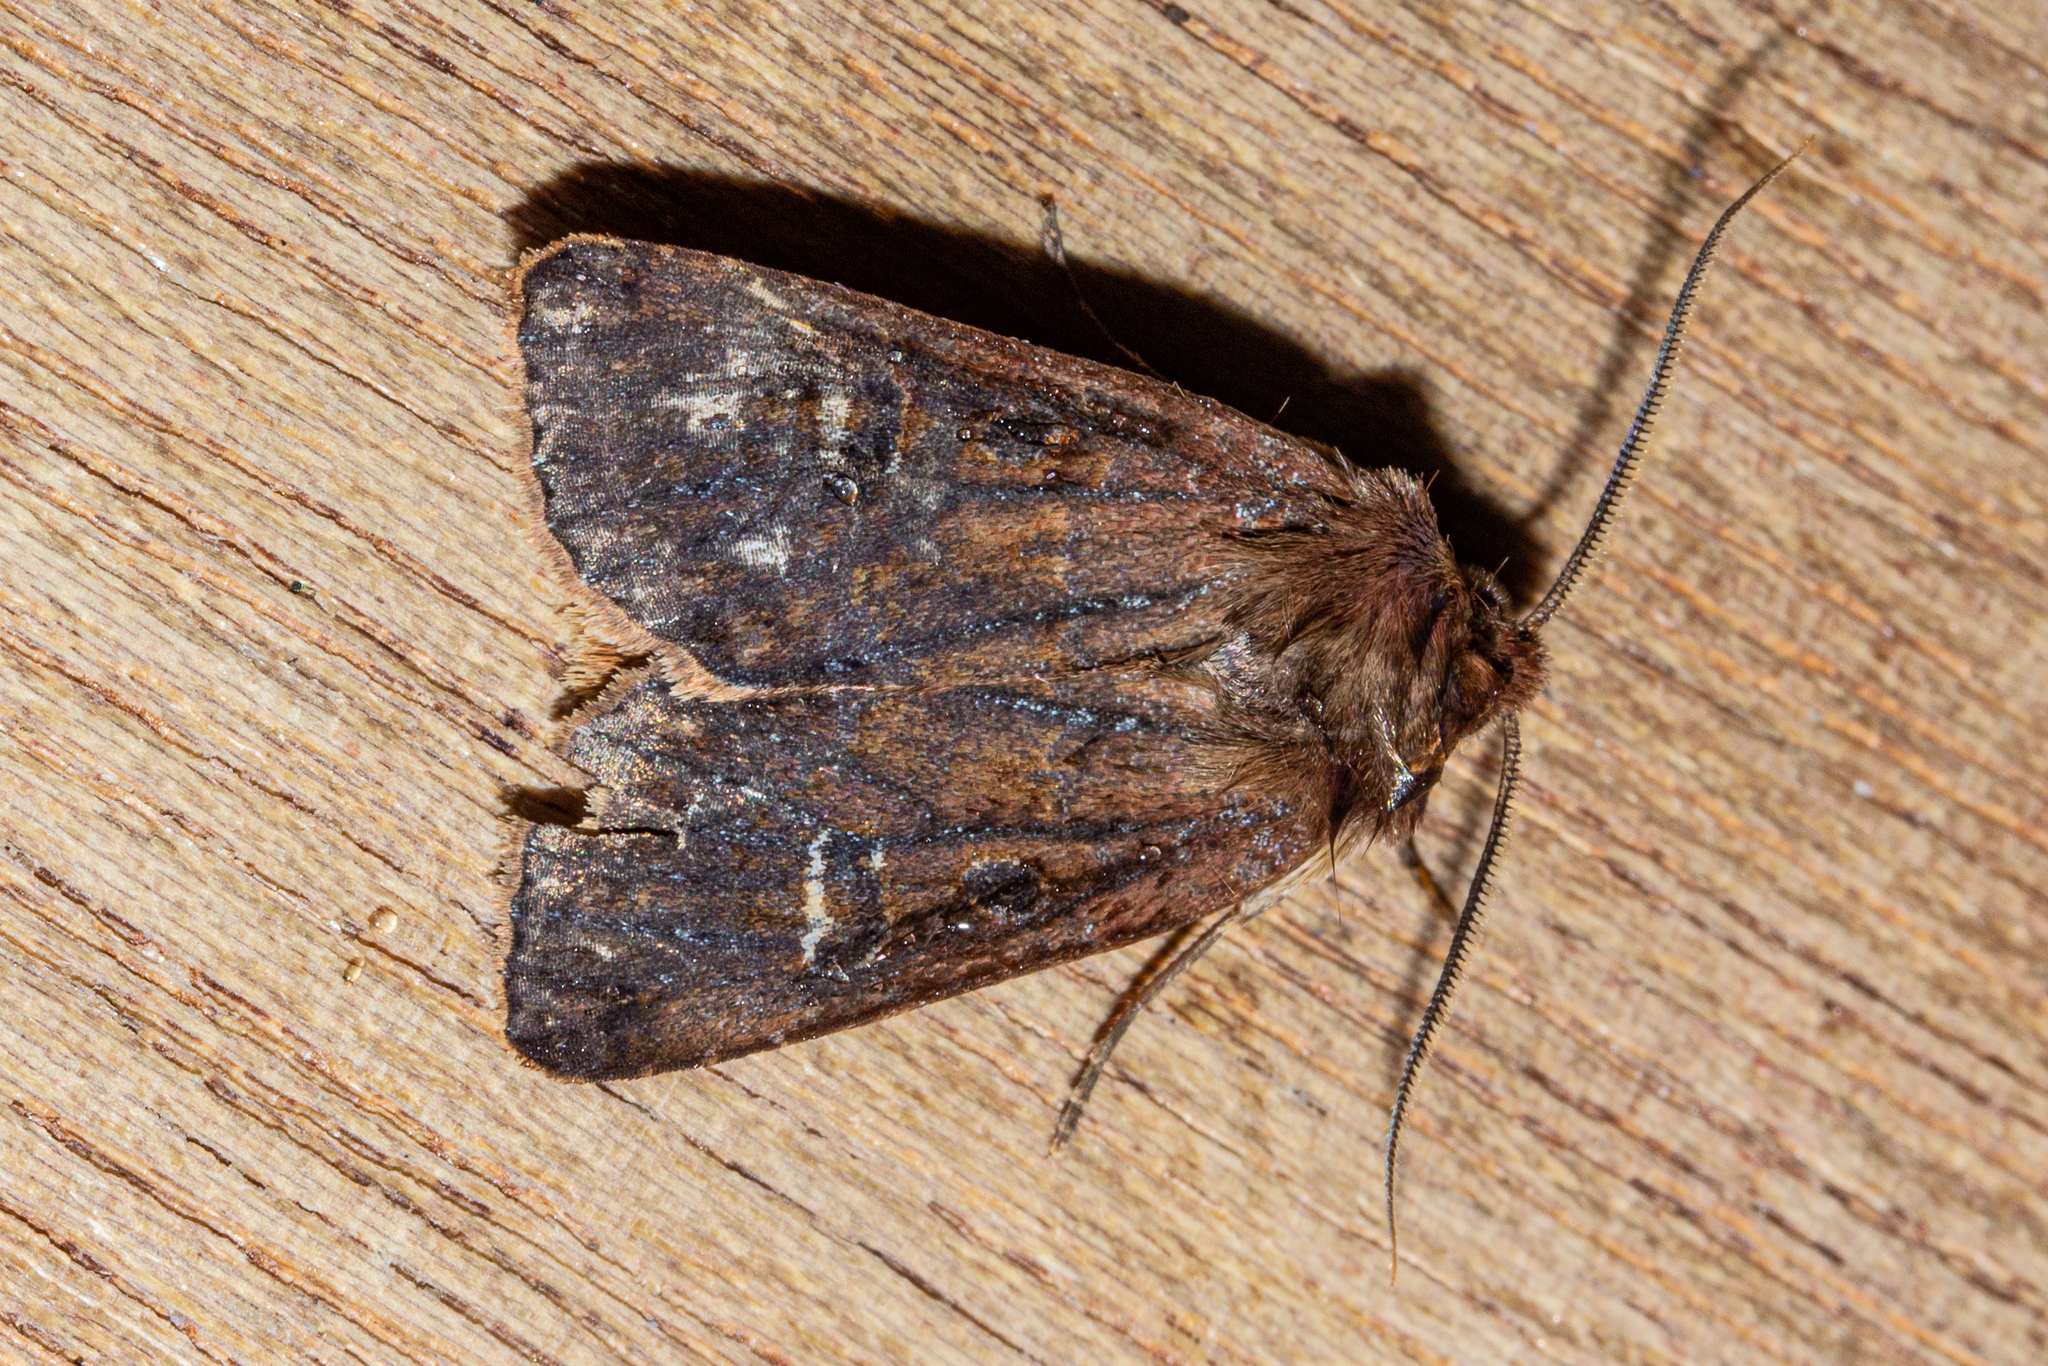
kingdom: Animalia
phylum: Arthropoda
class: Insecta
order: Lepidoptera
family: Noctuidae
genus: Ichneutica
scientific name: Ichneutica
